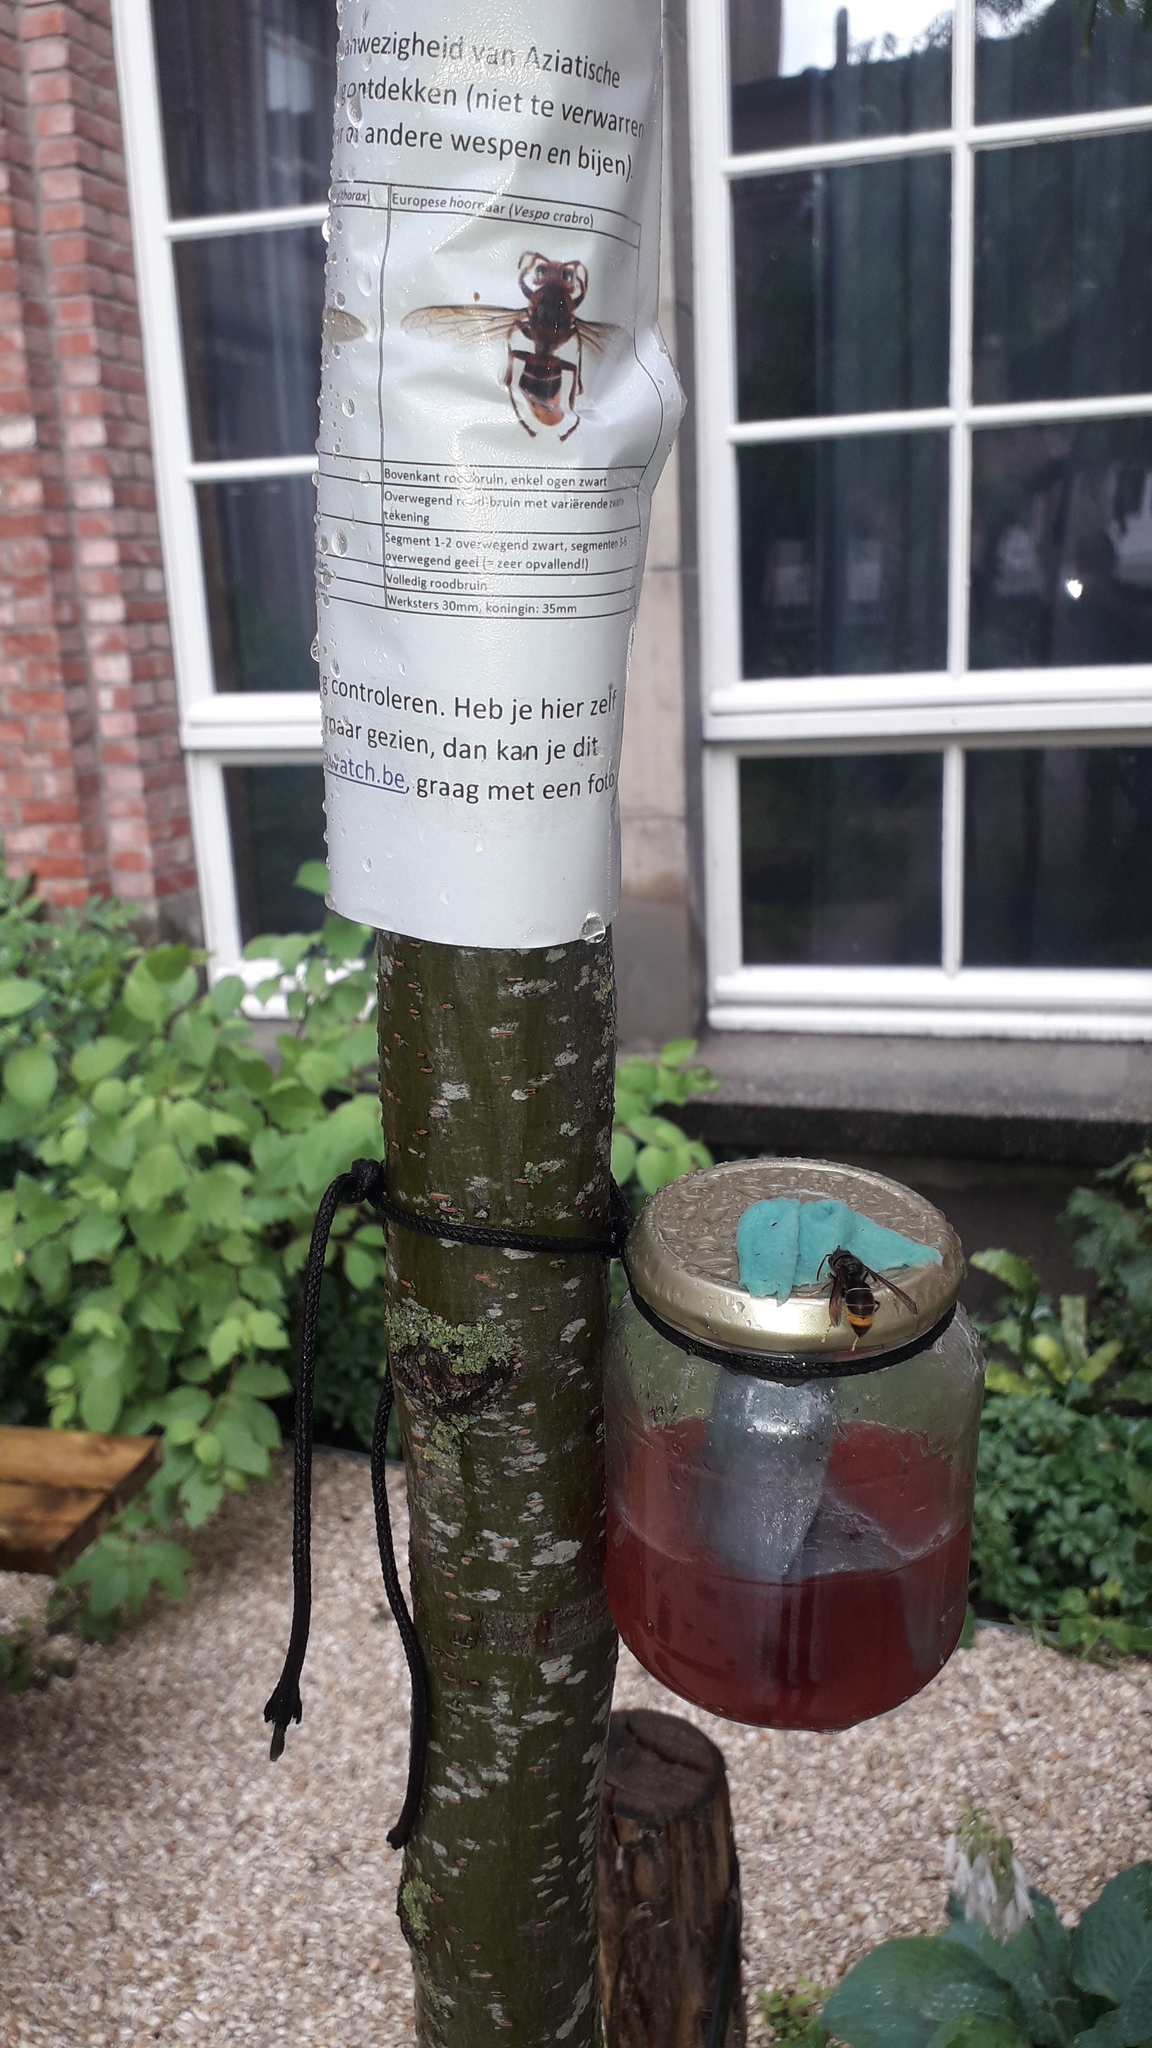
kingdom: Animalia
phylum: Arthropoda
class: Insecta
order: Hymenoptera
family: Vespidae
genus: Vespa
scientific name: Vespa velutina
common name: Asian hornet
